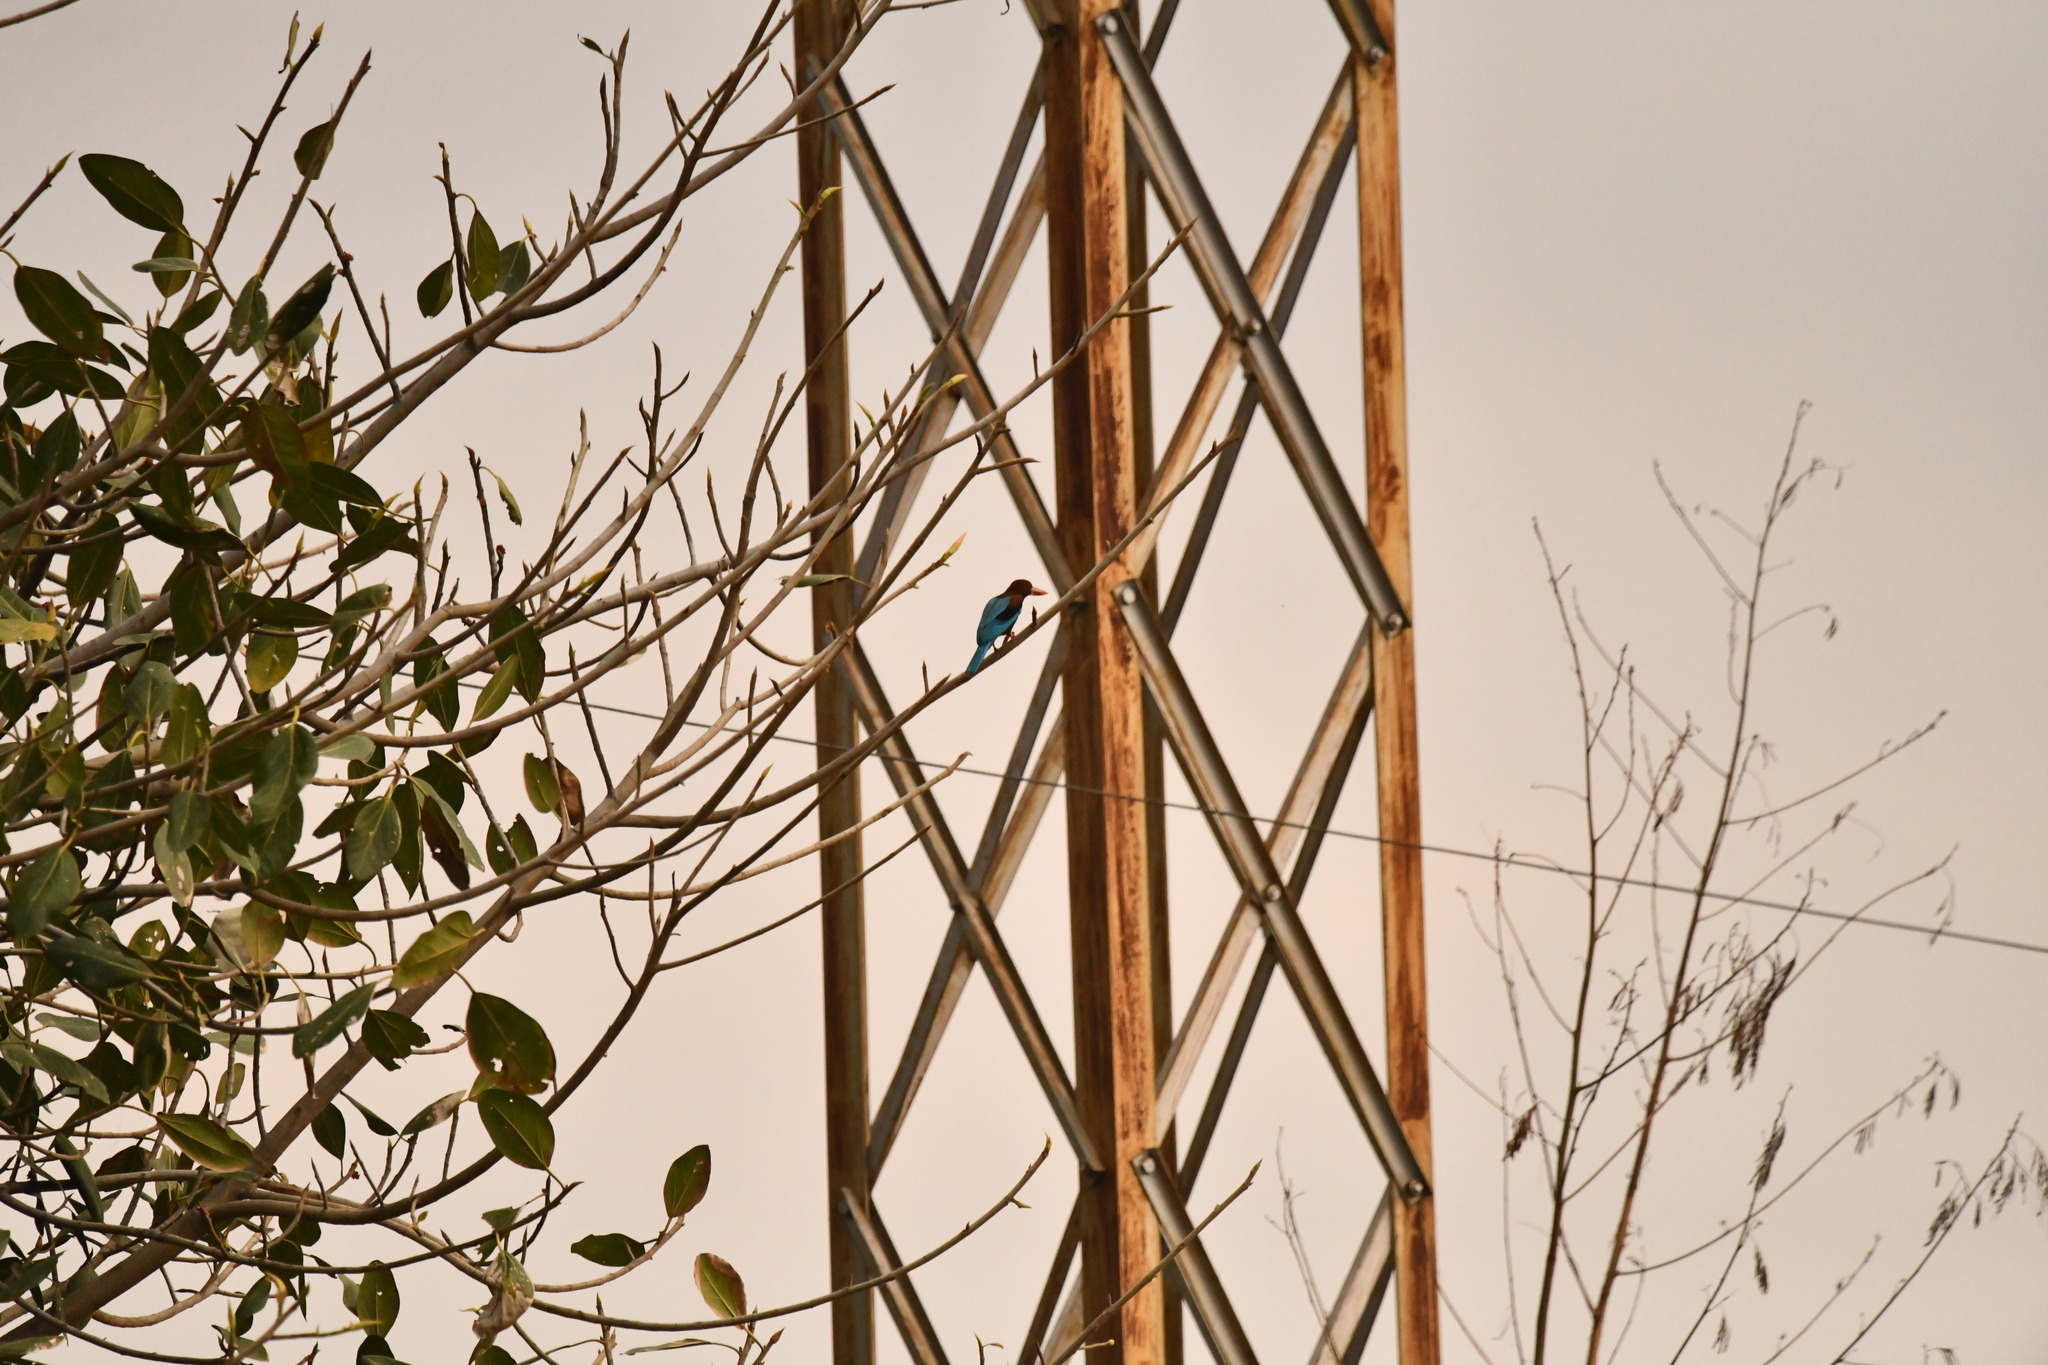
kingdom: Animalia
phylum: Chordata
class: Aves
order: Coraciiformes
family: Alcedinidae
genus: Halcyon
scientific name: Halcyon smyrnensis
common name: White-throated kingfisher
